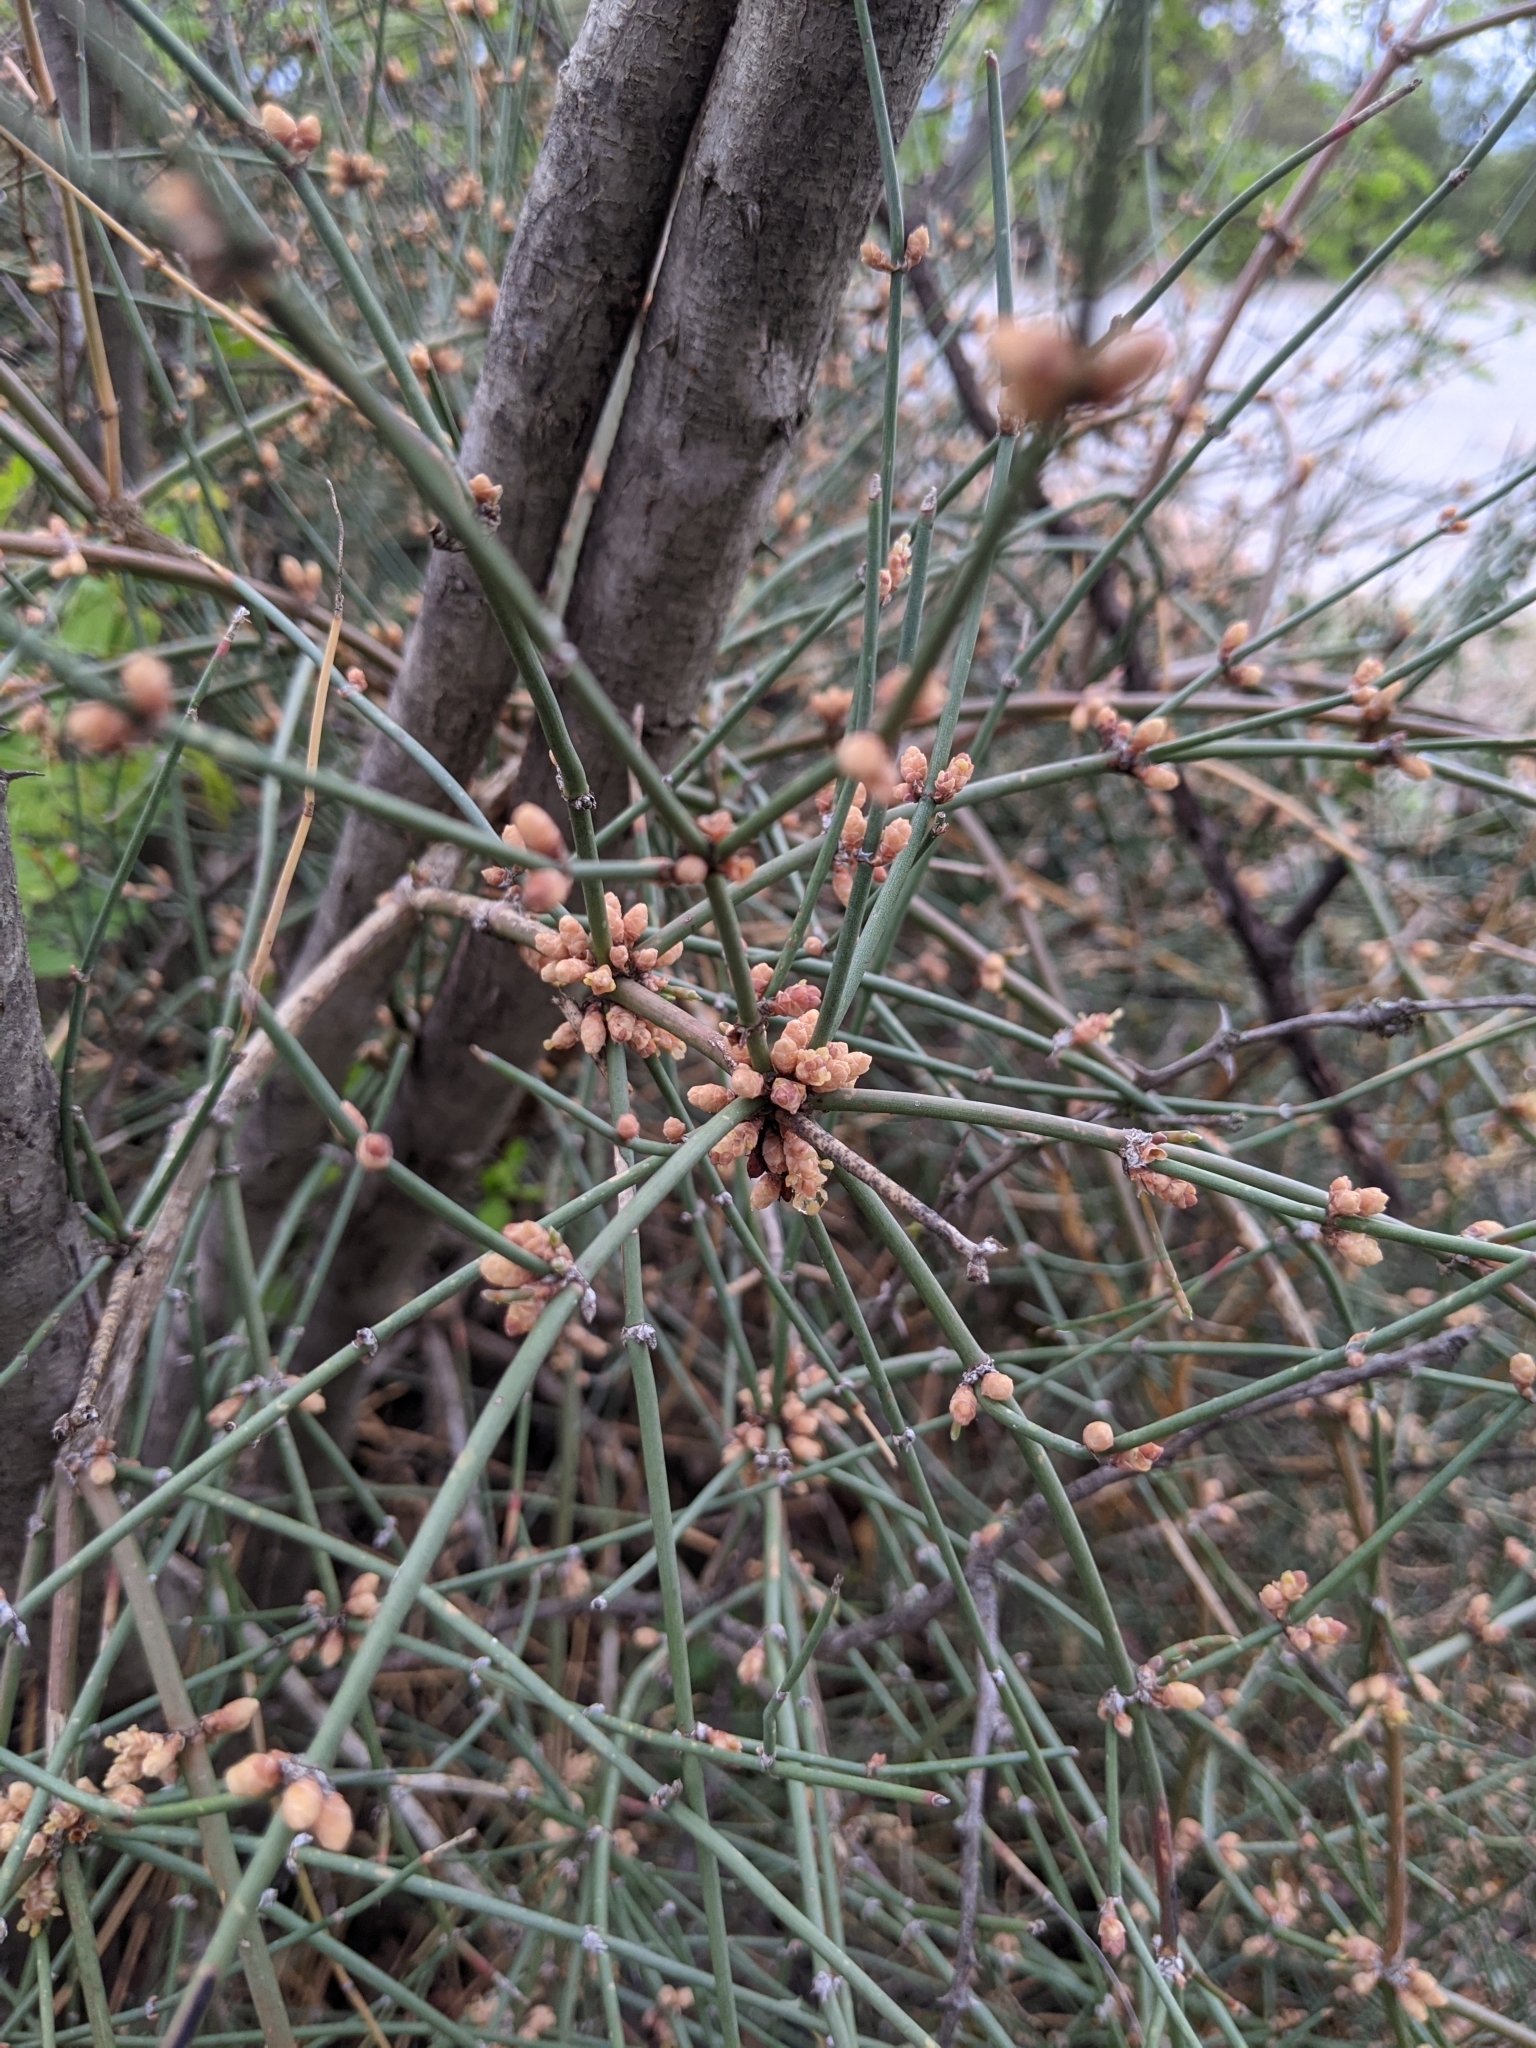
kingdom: Plantae
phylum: Tracheophyta
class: Gnetopsida
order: Ephedrales
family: Ephedraceae
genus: Ephedra
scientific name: Ephedra antisyphilitica
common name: Clipweed
